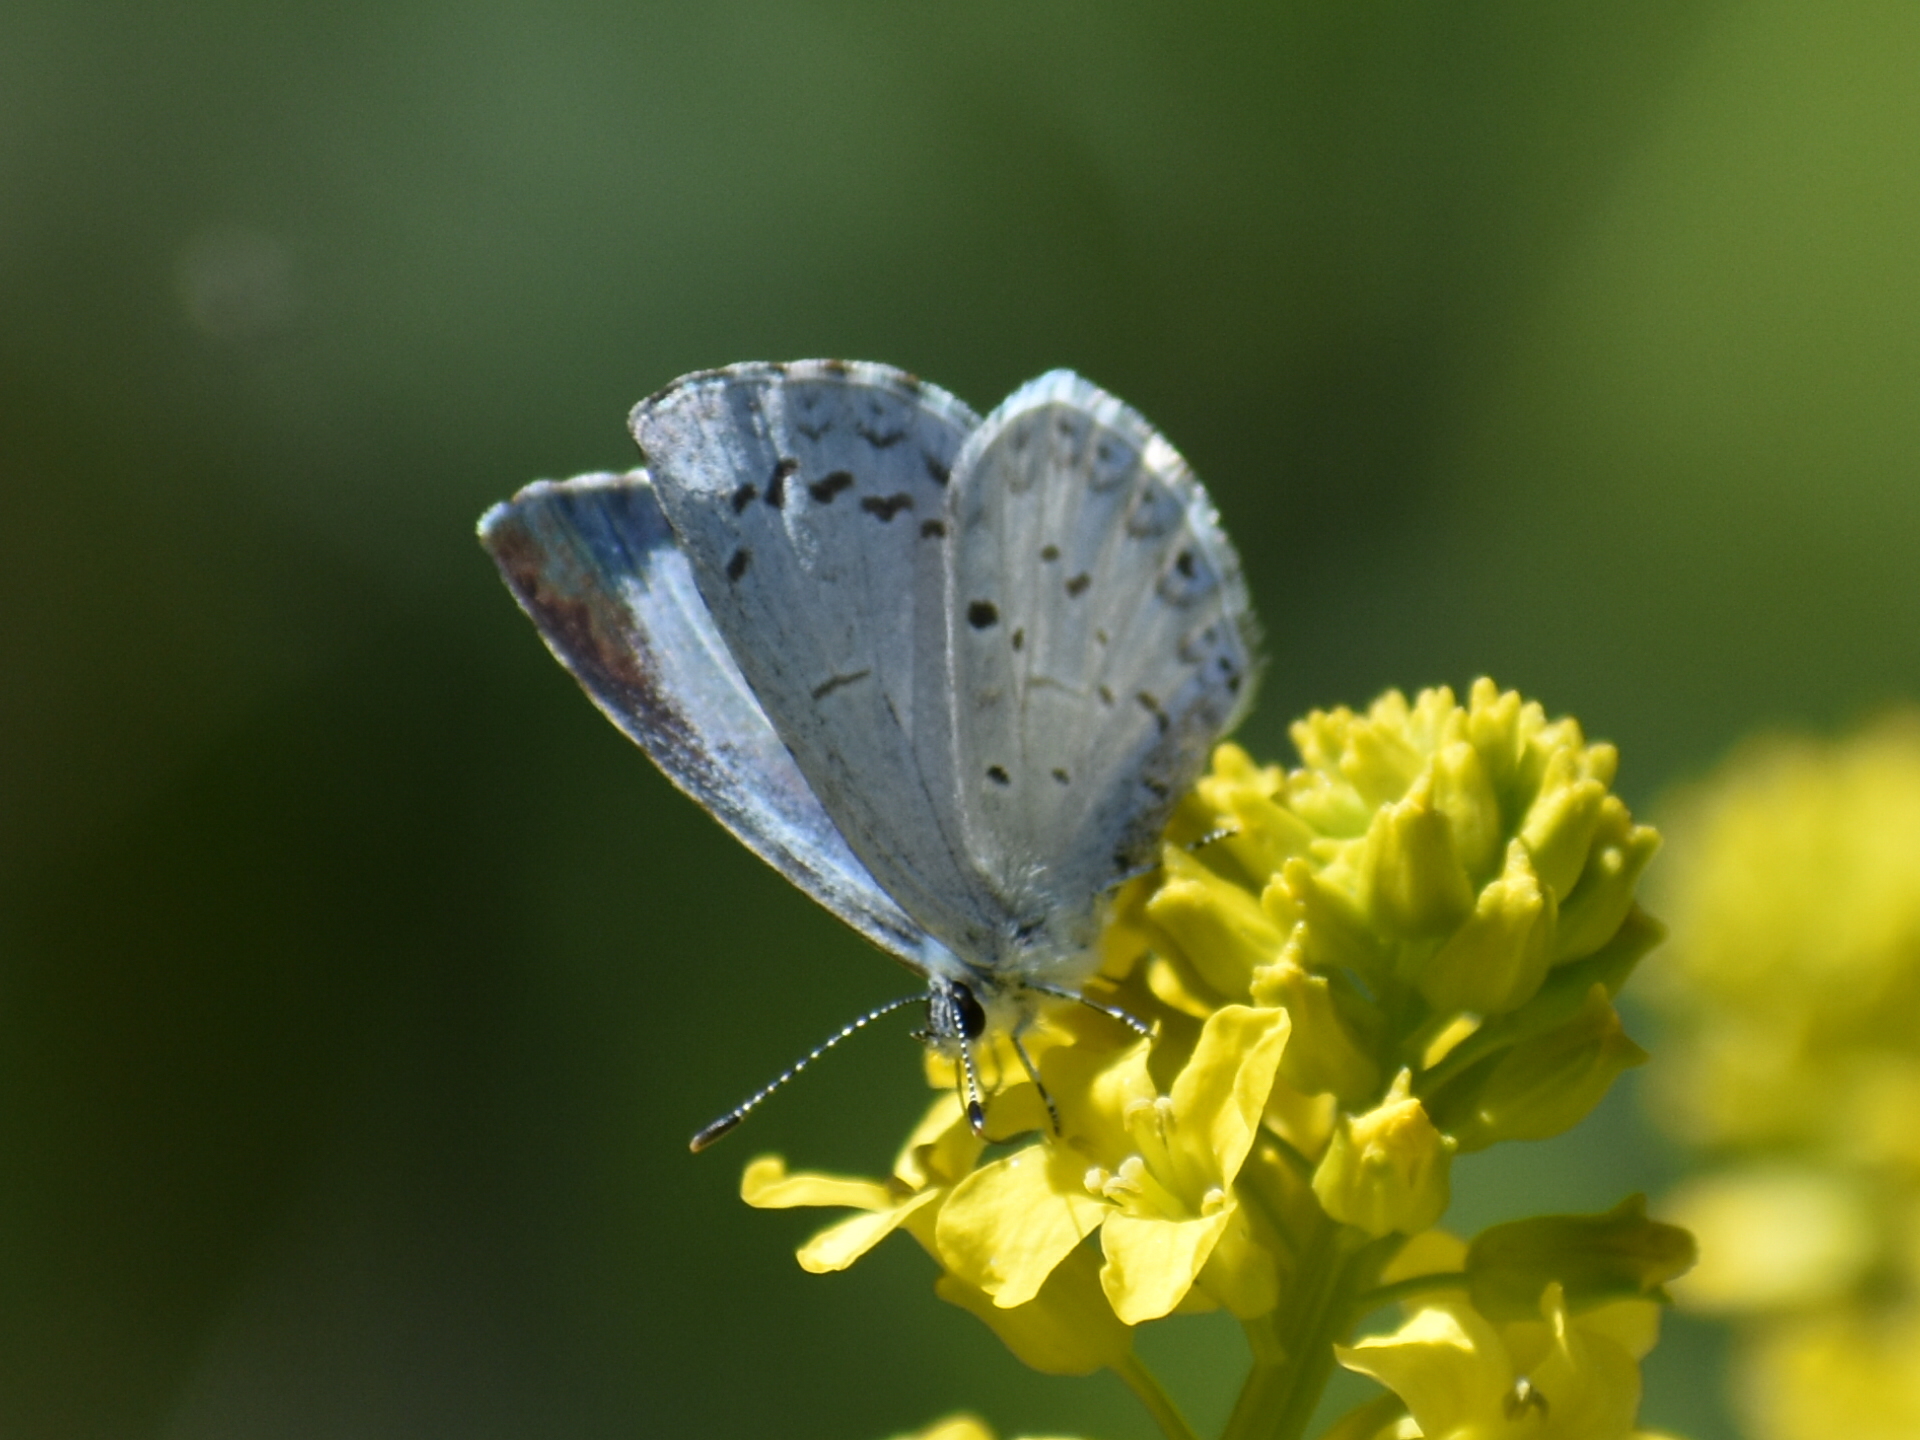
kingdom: Animalia
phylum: Arthropoda
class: Insecta
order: Lepidoptera
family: Lycaenidae
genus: Celastrina
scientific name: Celastrina ladon
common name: Spring azure
